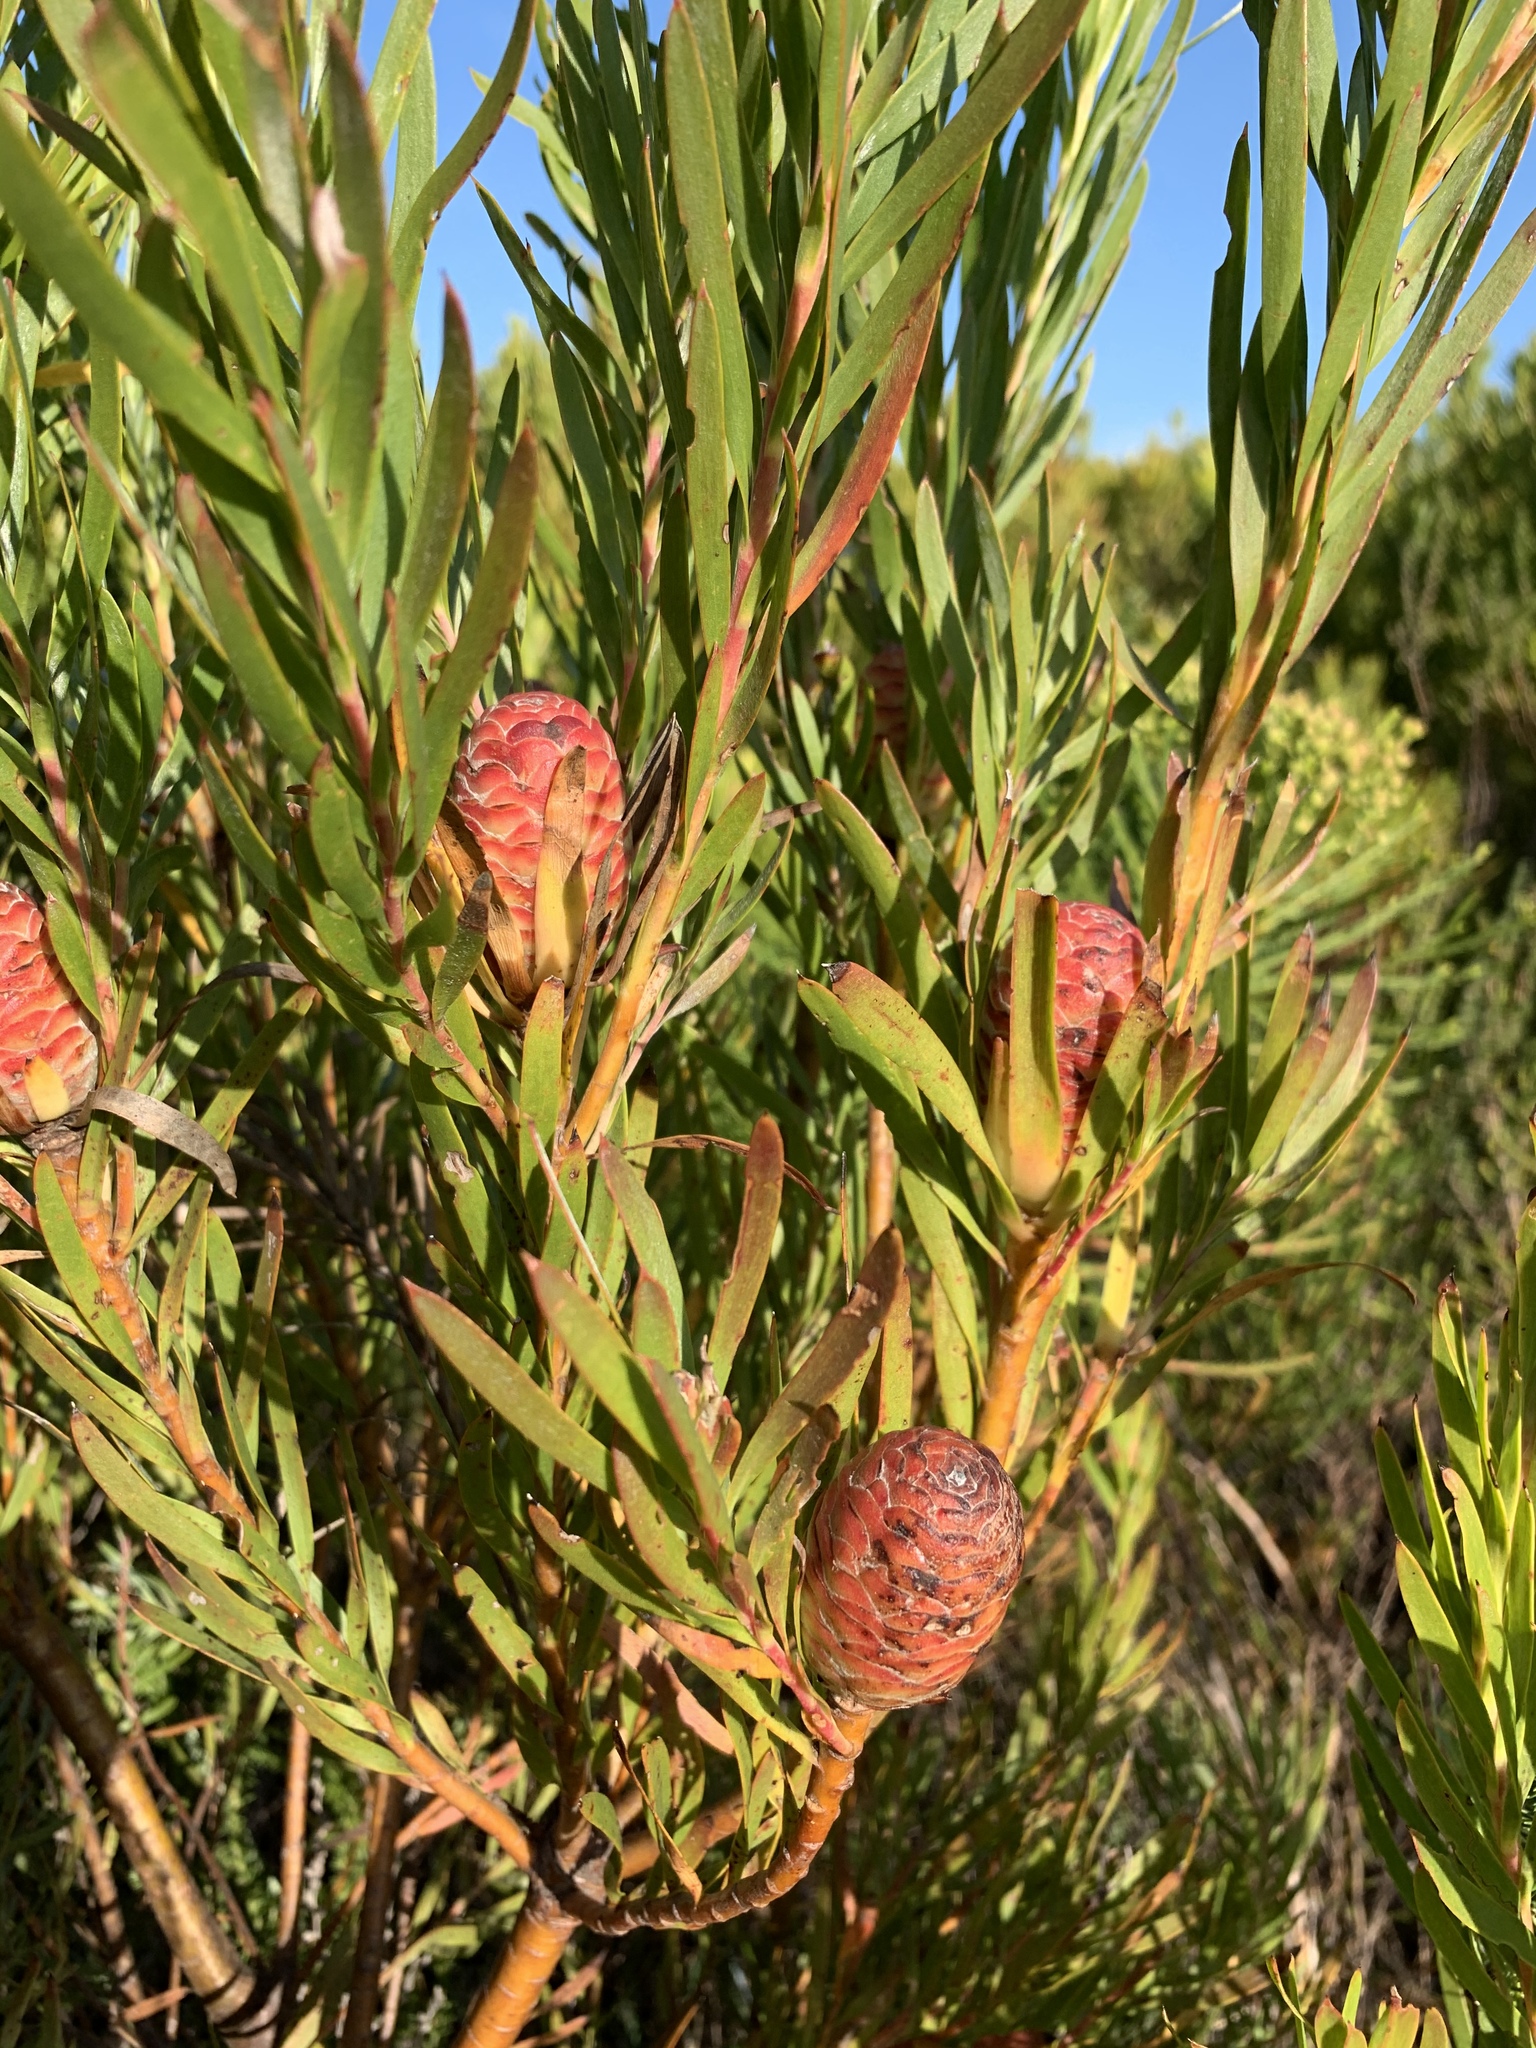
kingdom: Plantae
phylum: Tracheophyta
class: Magnoliopsida
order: Proteales
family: Proteaceae
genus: Leucadendron
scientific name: Leucadendron xanthoconus
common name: Sickle-leaf conebush
